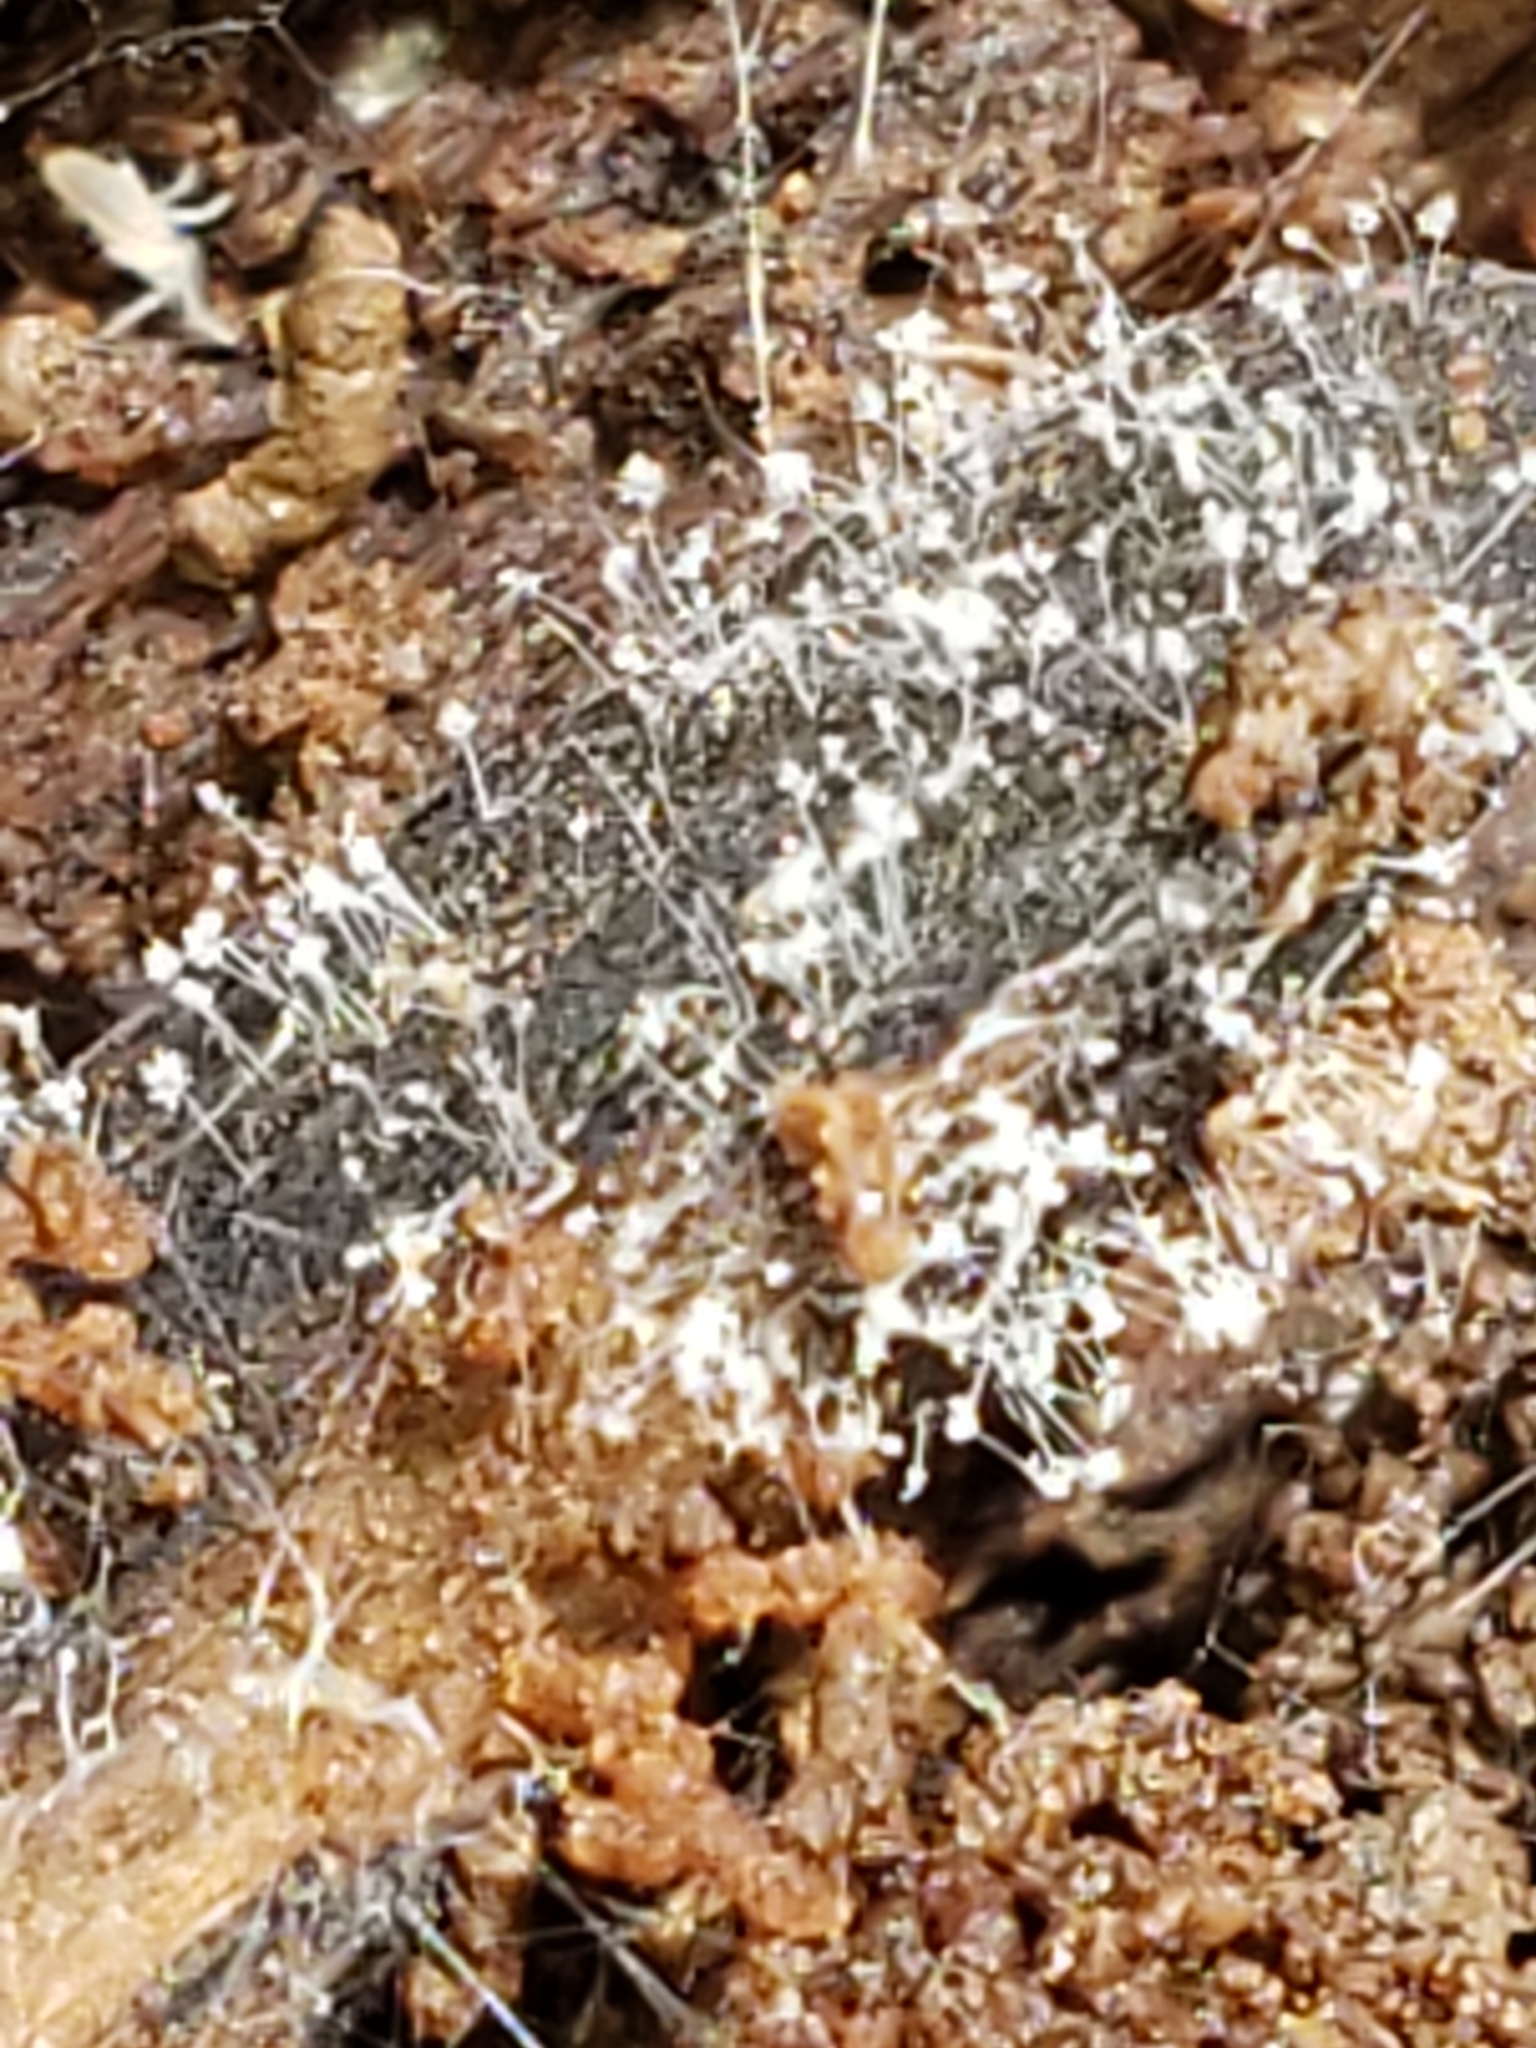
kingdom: Fungi
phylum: Ascomycota
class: Sordariomycetes
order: Hypocreales
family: Nectriaceae
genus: Mariannaea
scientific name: Mariannaea elegans
